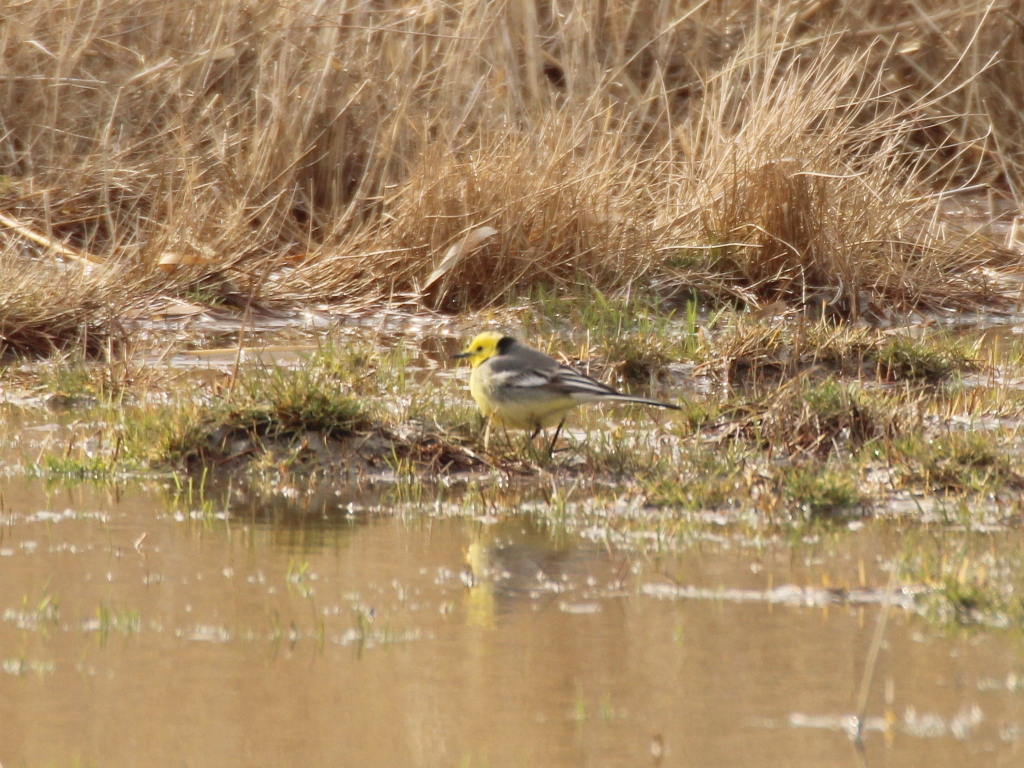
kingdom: Animalia
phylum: Chordata
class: Aves
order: Passeriformes
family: Motacillidae
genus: Motacilla
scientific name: Motacilla citreola
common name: Citrine wagtail
